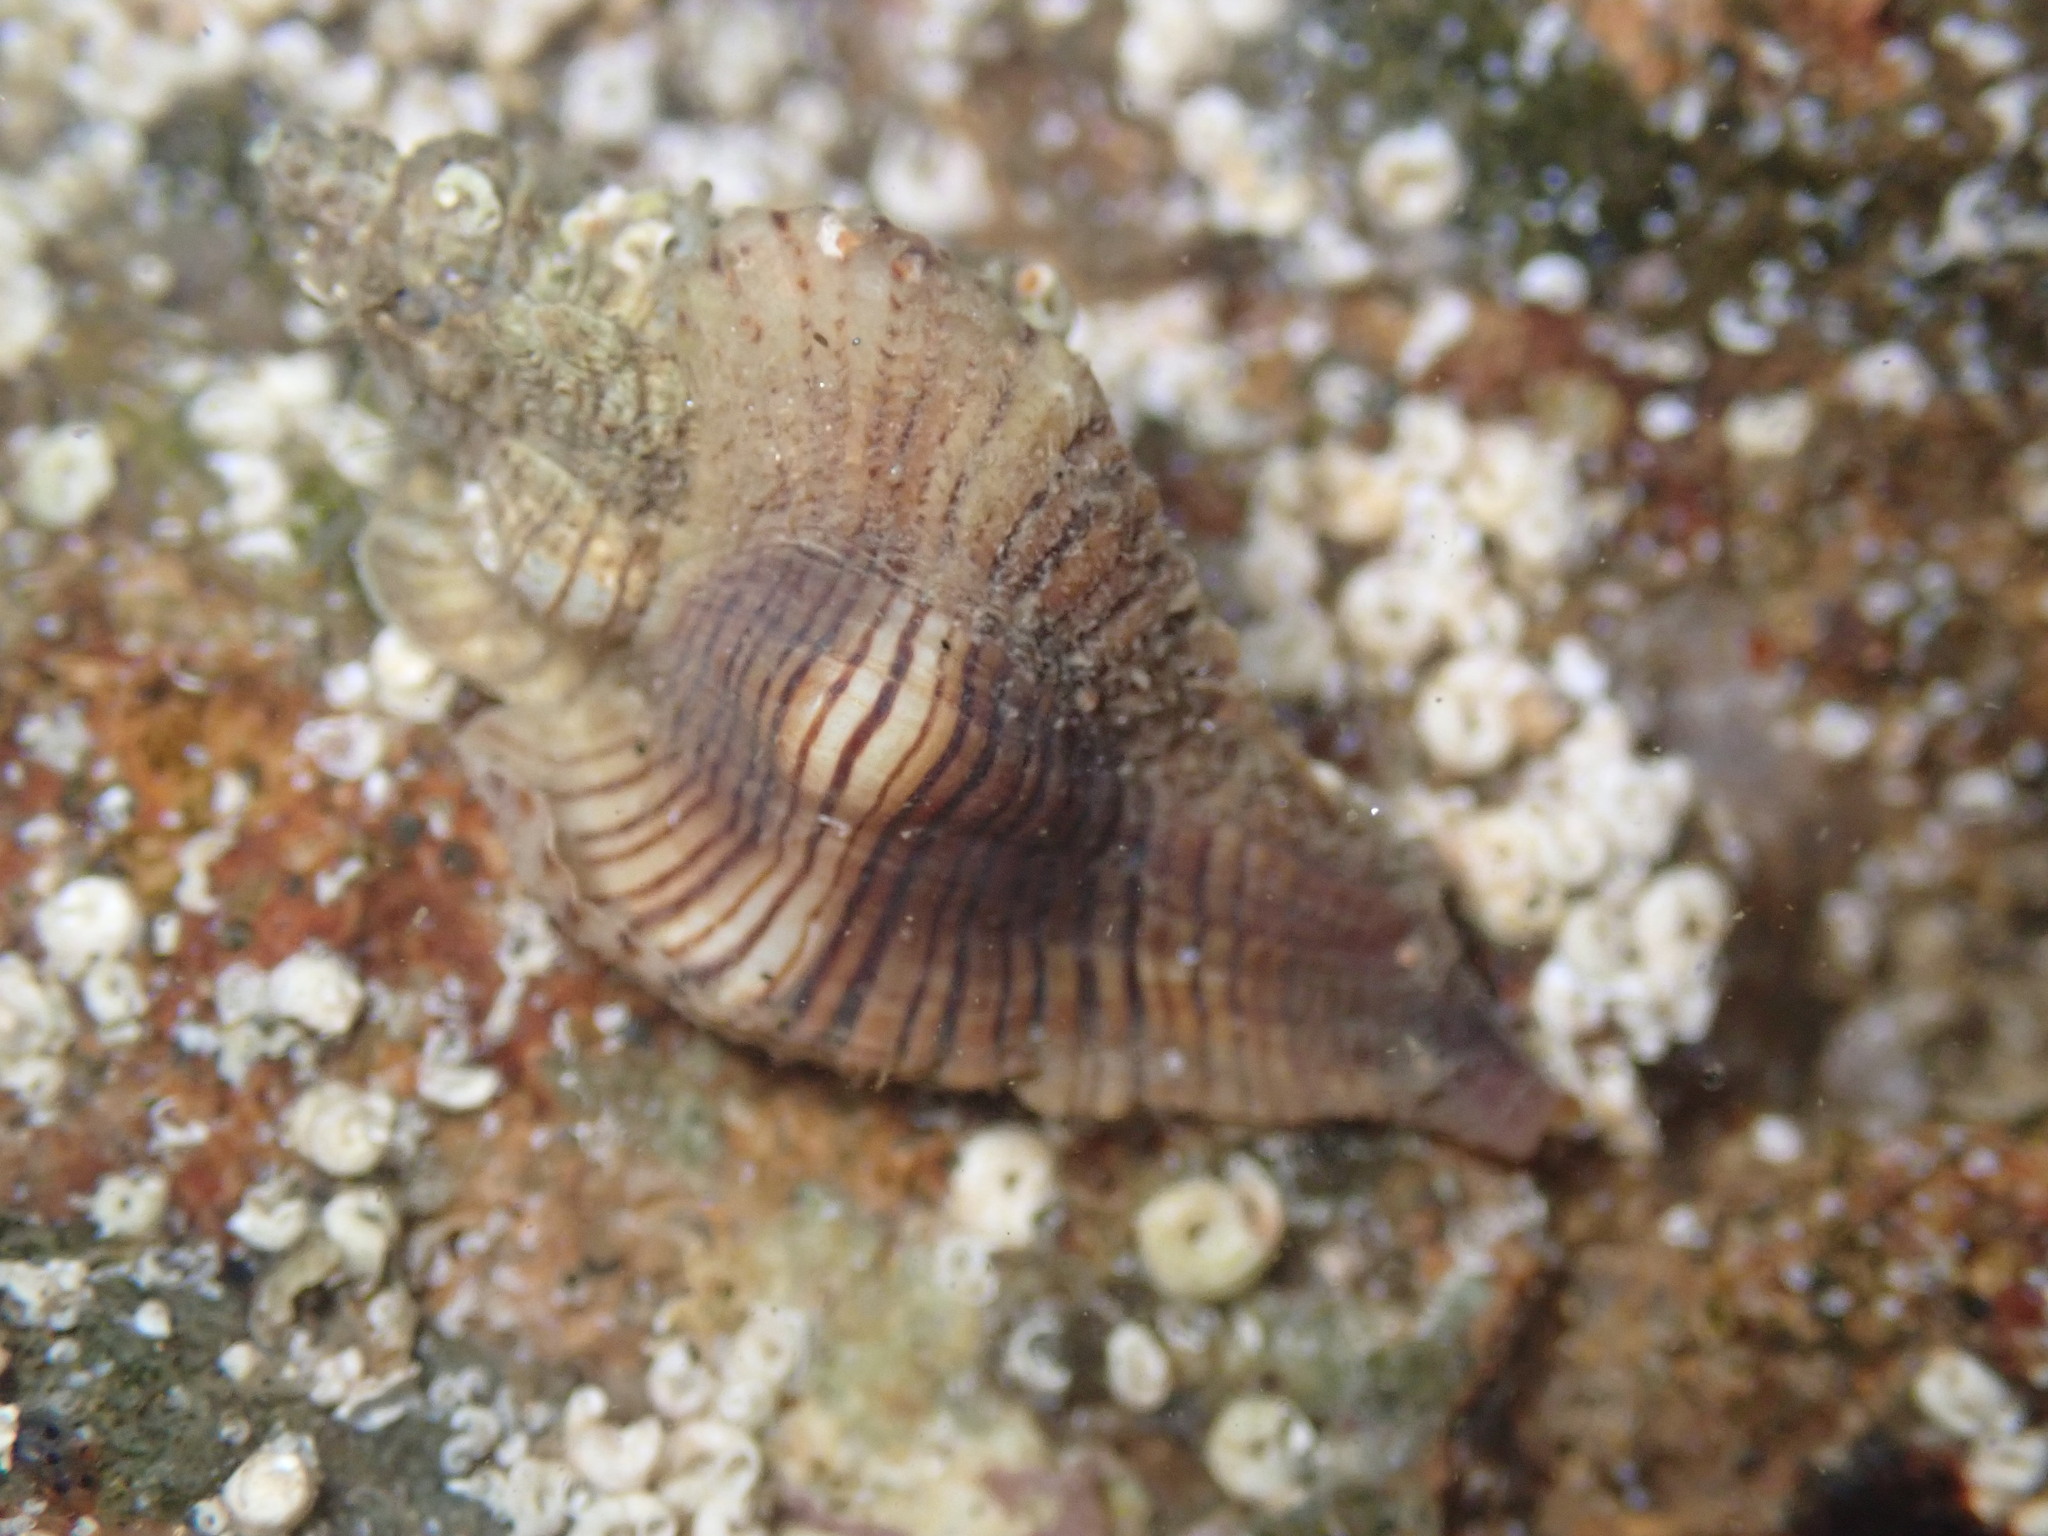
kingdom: Animalia
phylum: Mollusca
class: Gastropoda
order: Neogastropoda
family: Muricidae
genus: Pteropurpura
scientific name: Pteropurpura festiva
